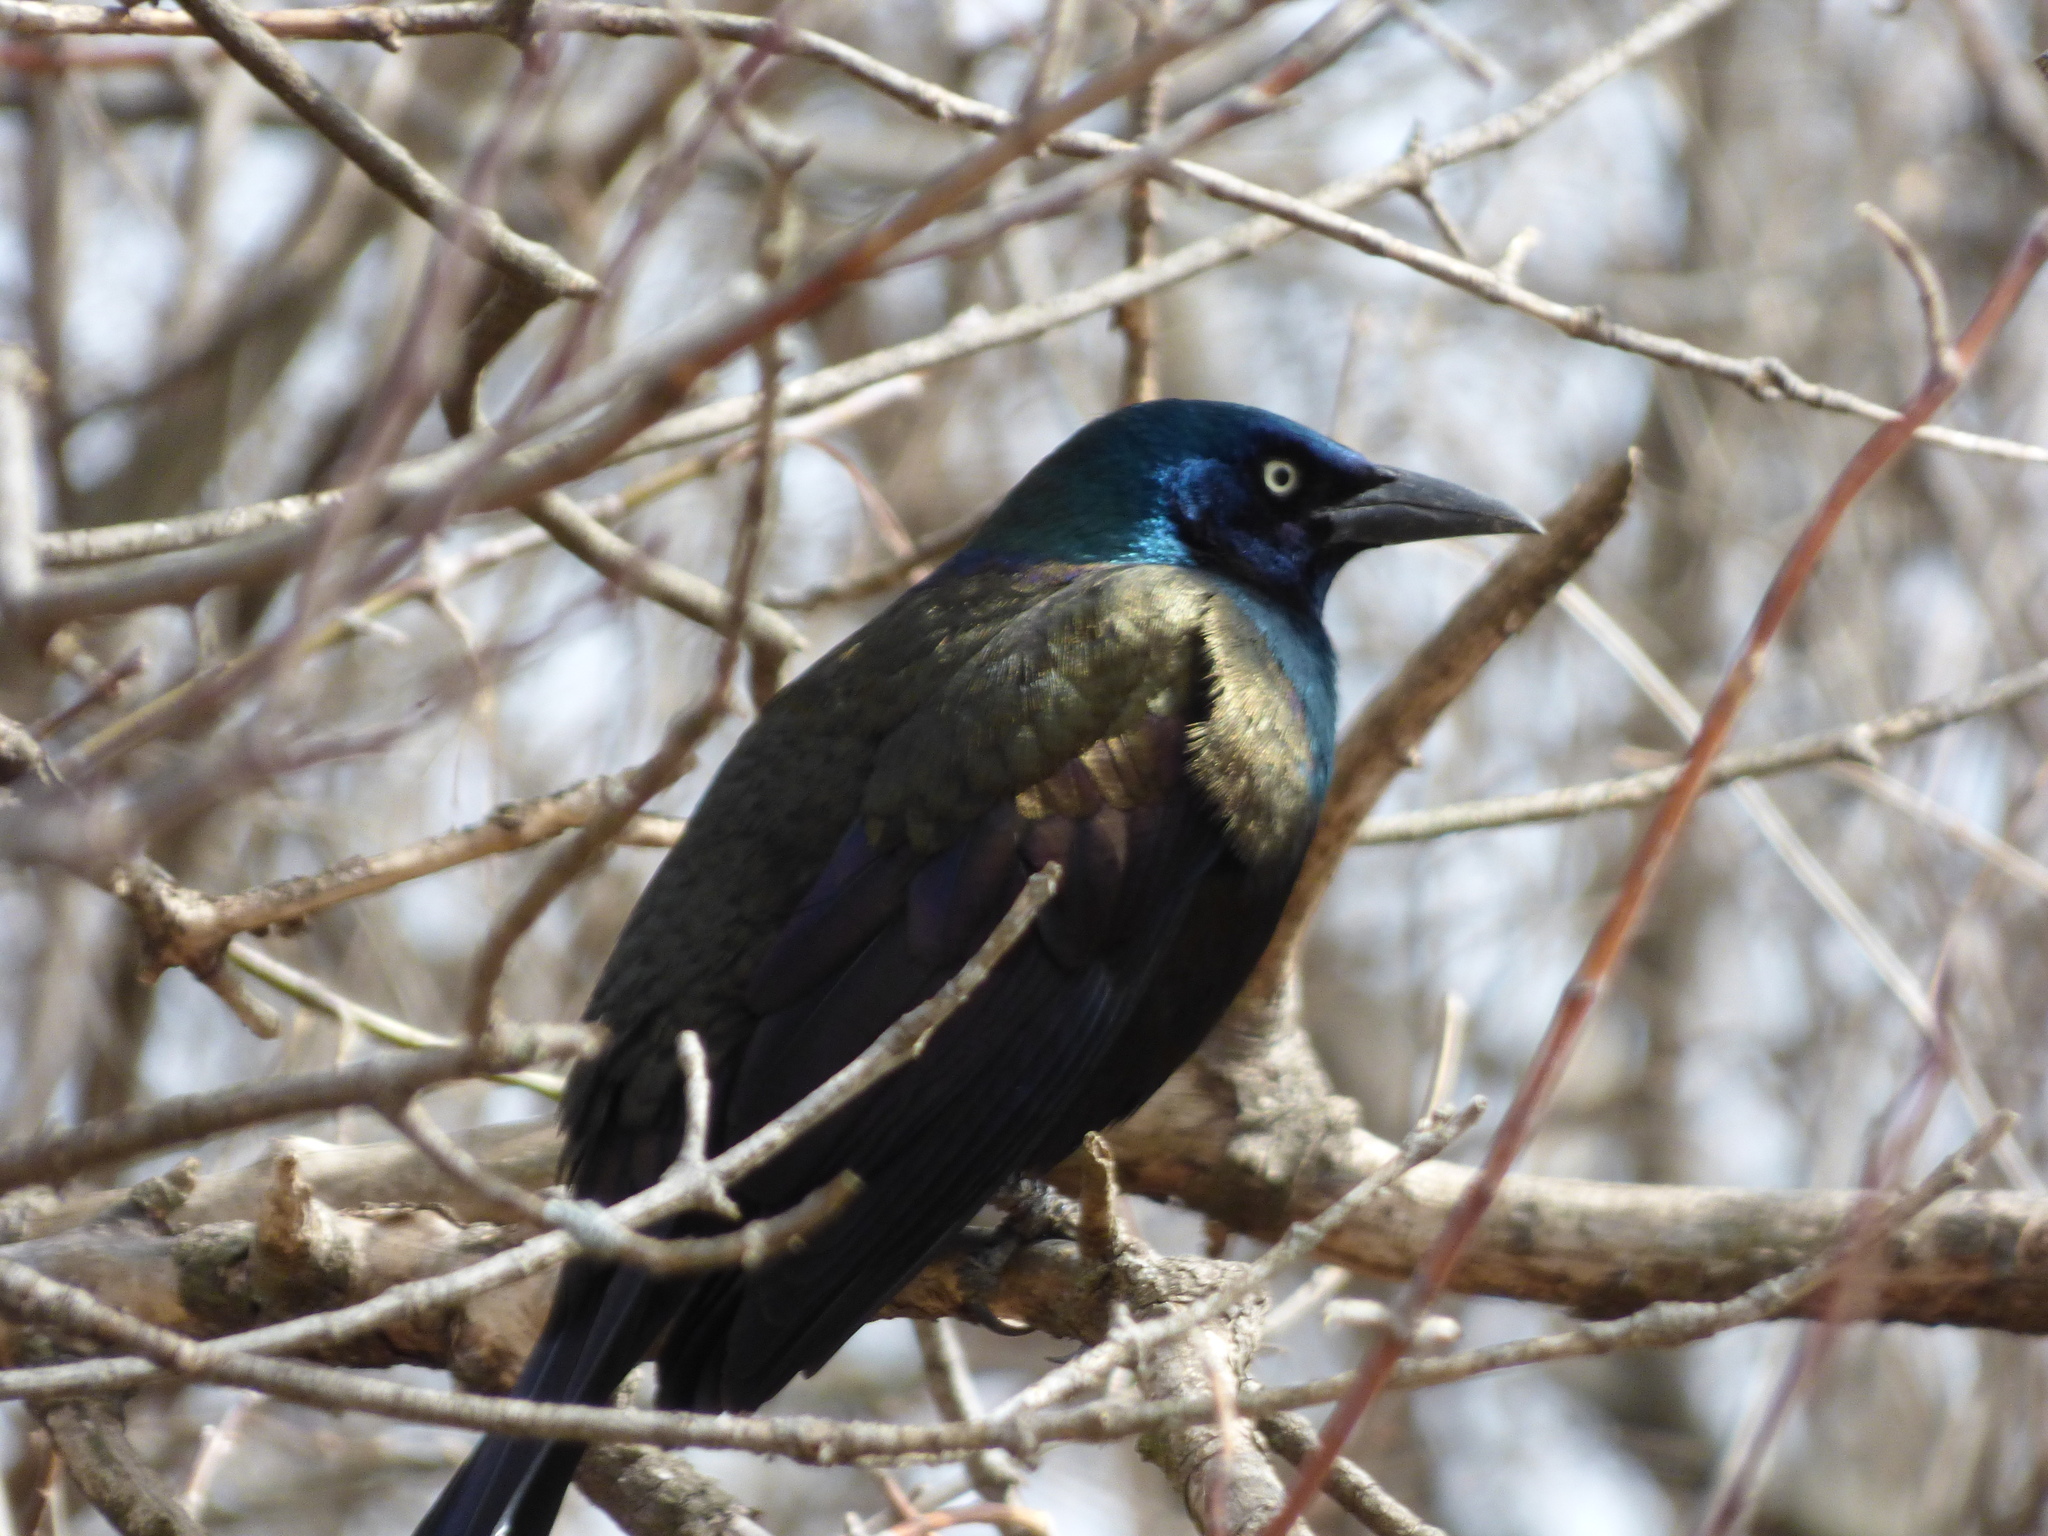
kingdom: Animalia
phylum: Chordata
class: Aves
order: Passeriformes
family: Icteridae
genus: Quiscalus
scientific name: Quiscalus quiscula
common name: Common grackle
